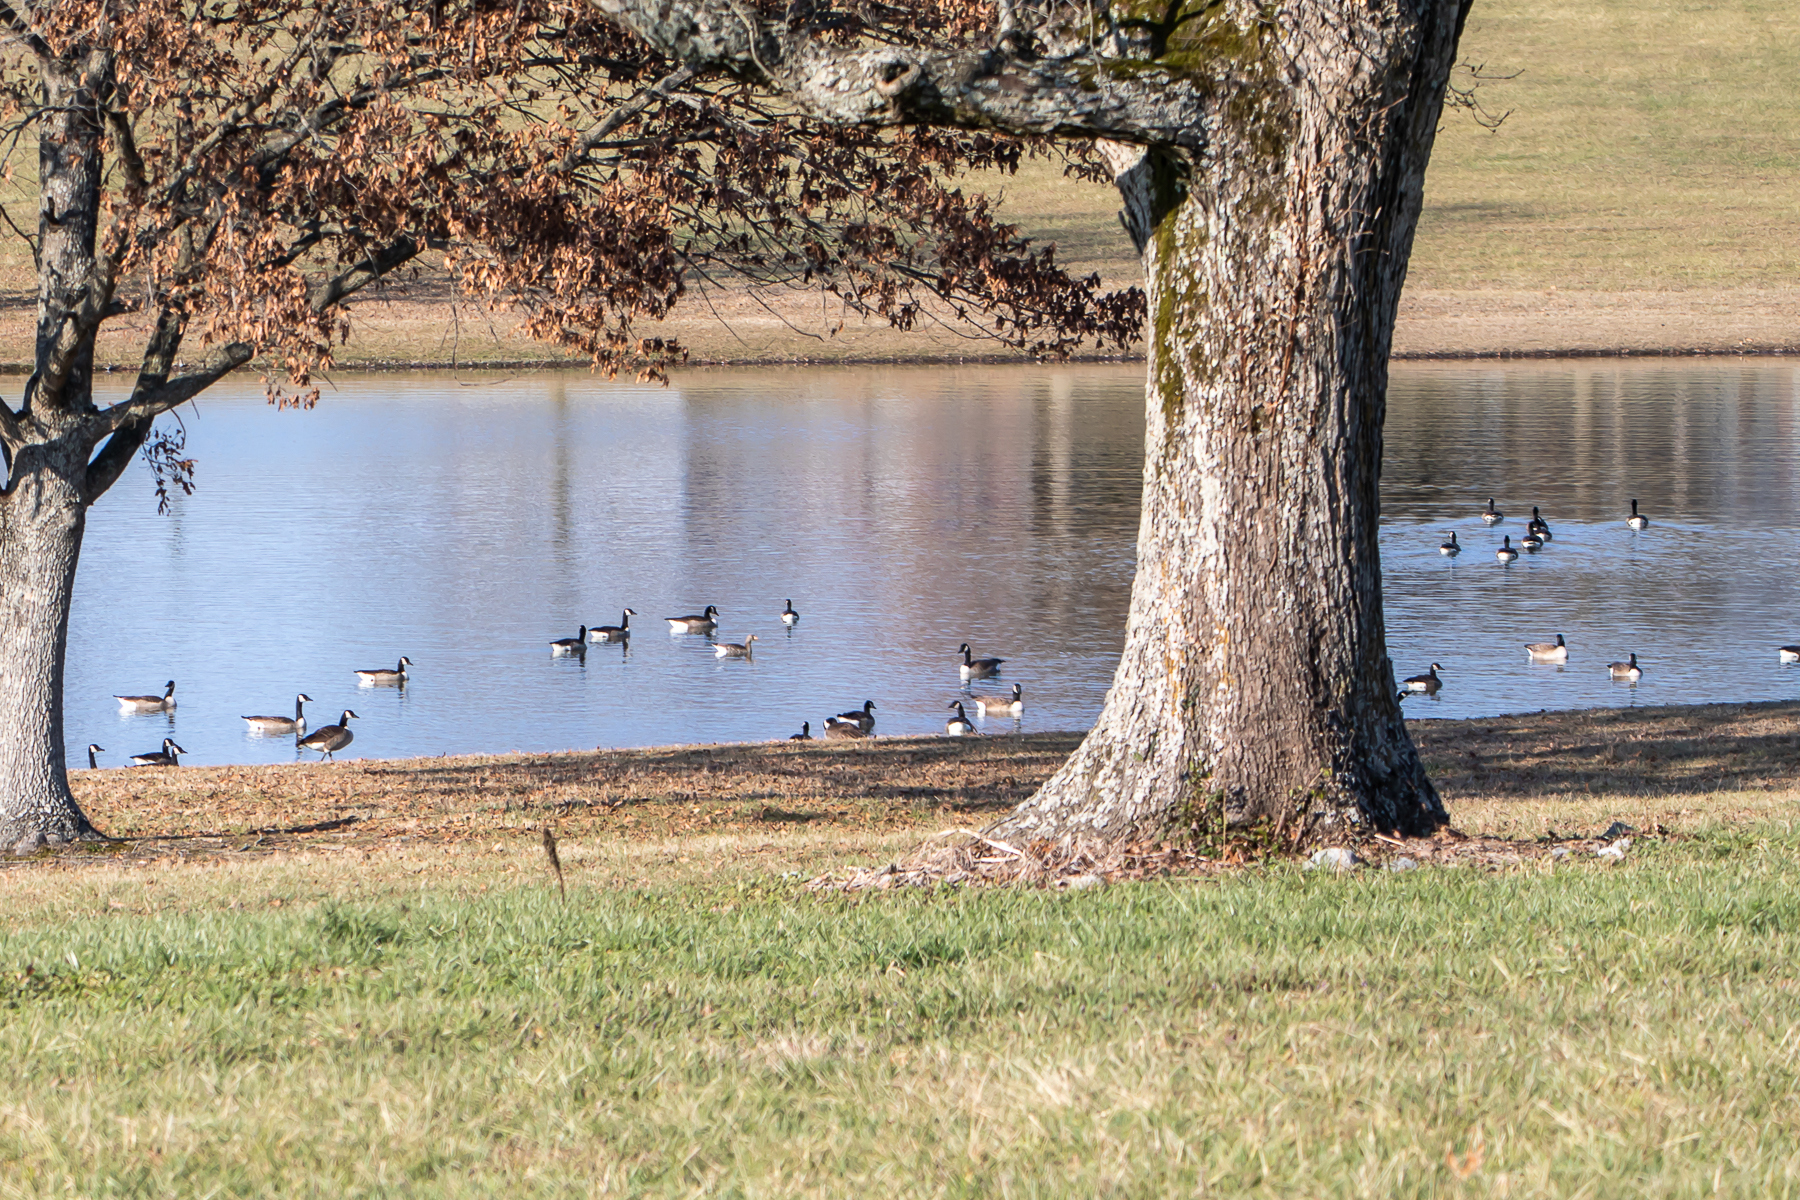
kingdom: Animalia
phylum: Chordata
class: Aves
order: Anseriformes
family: Anatidae
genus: Branta
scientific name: Branta canadensis
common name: Canada goose
